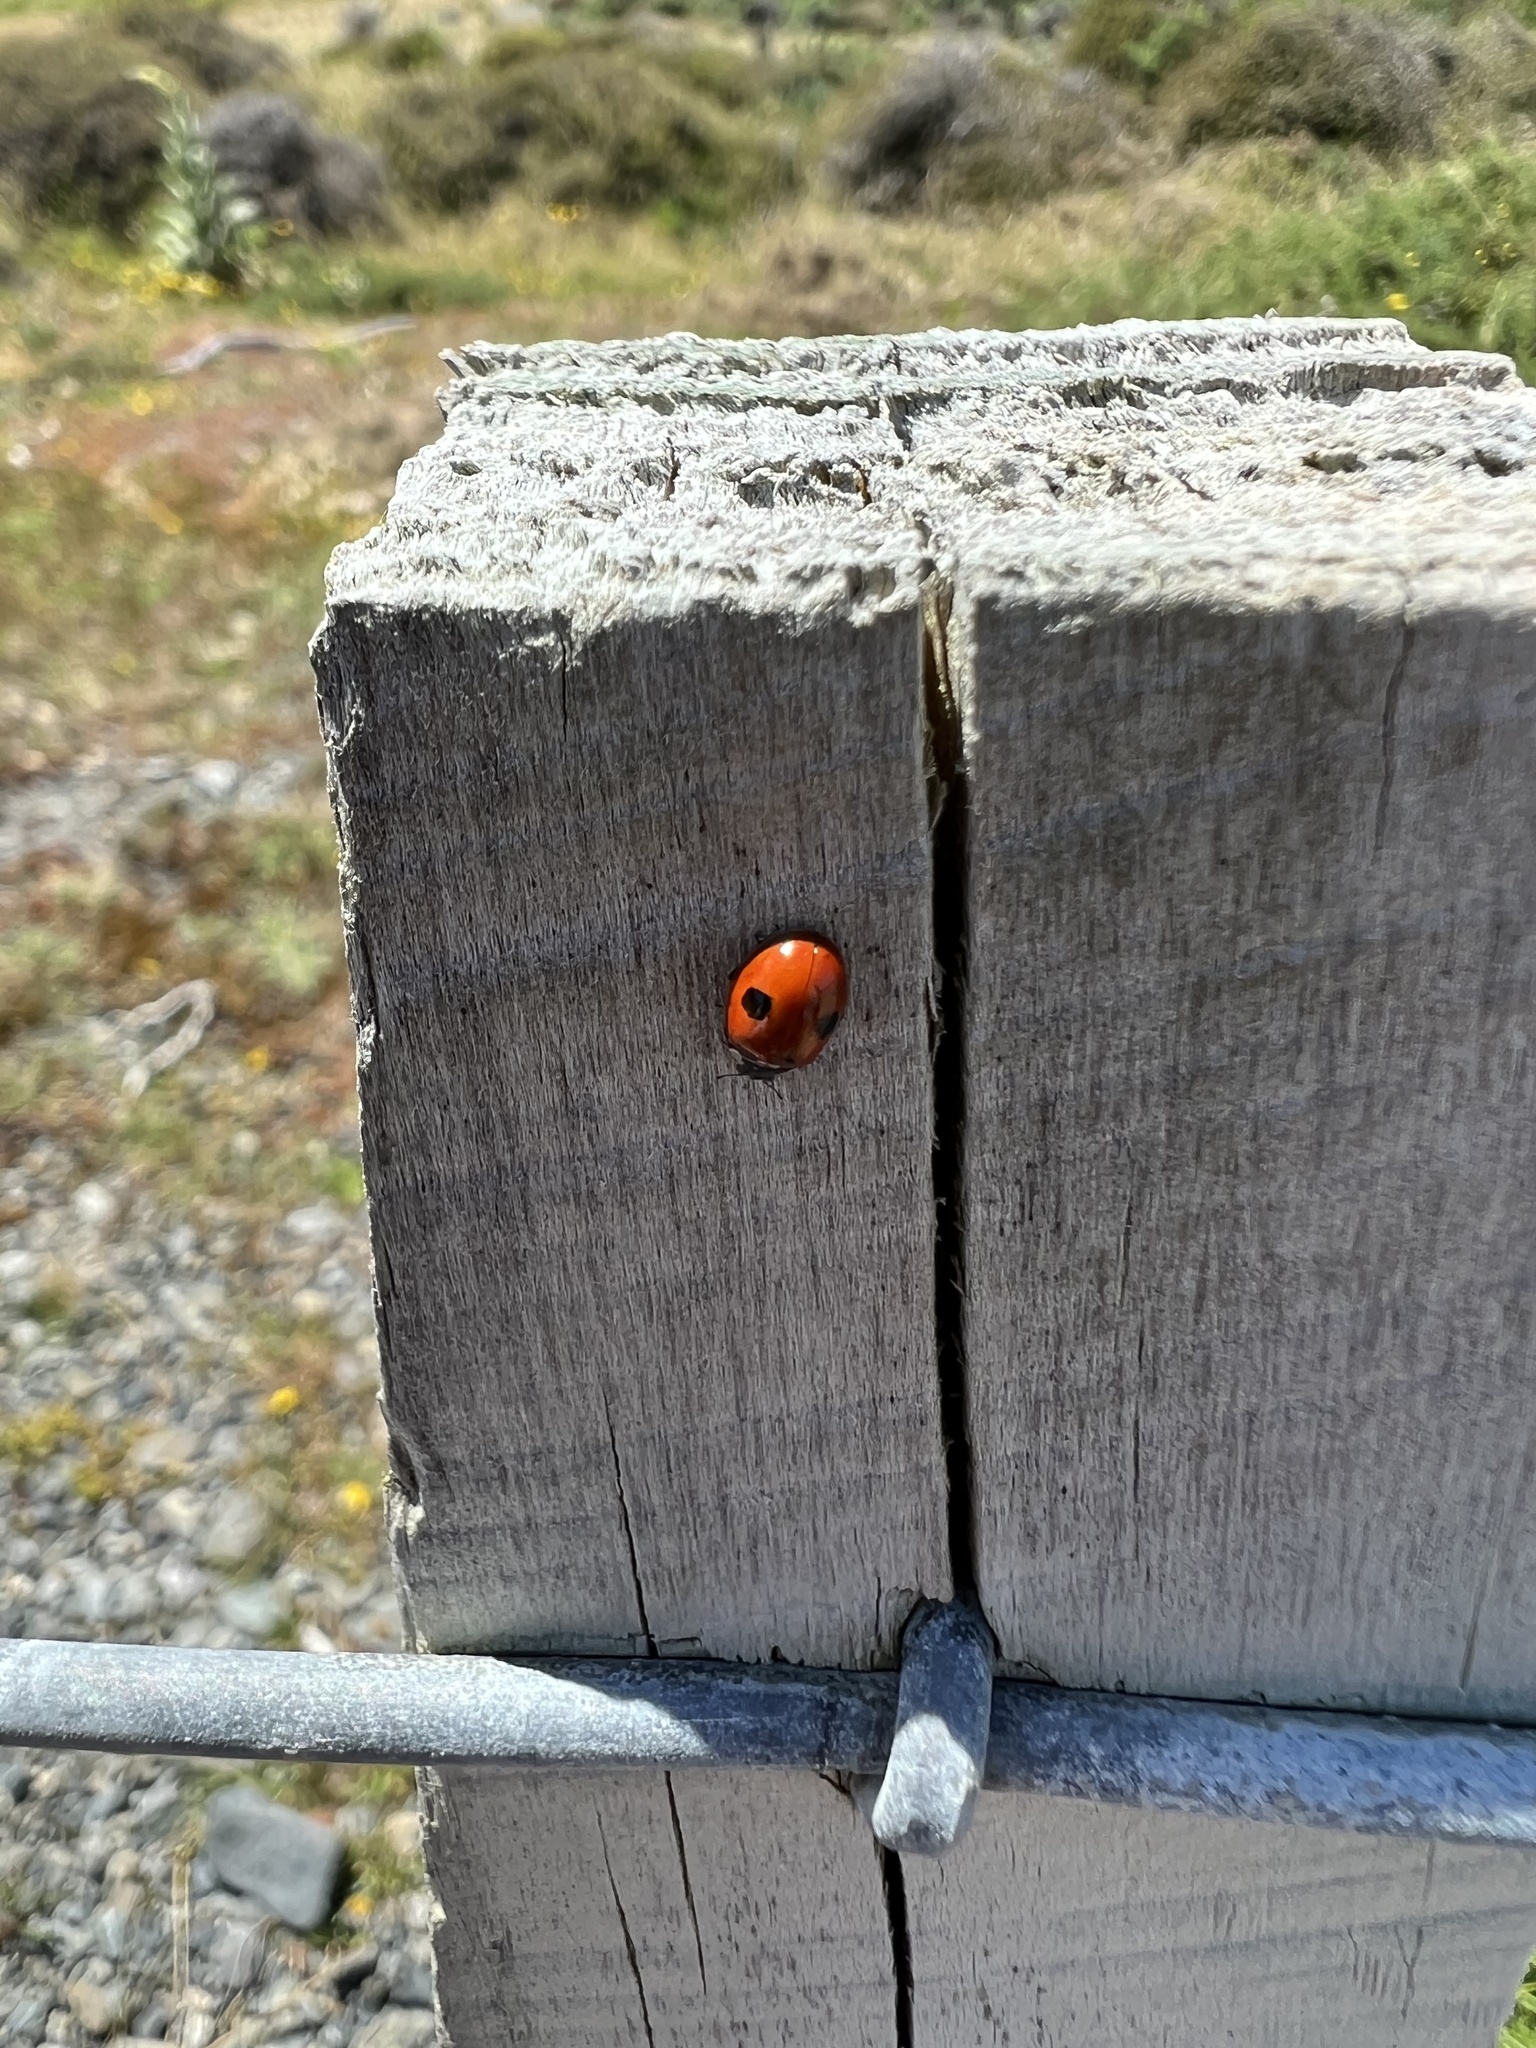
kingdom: Animalia
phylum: Arthropoda
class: Insecta
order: Coleoptera
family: Coccinellidae
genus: Adalia
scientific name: Adalia bipunctata
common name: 2-spot ladybird
